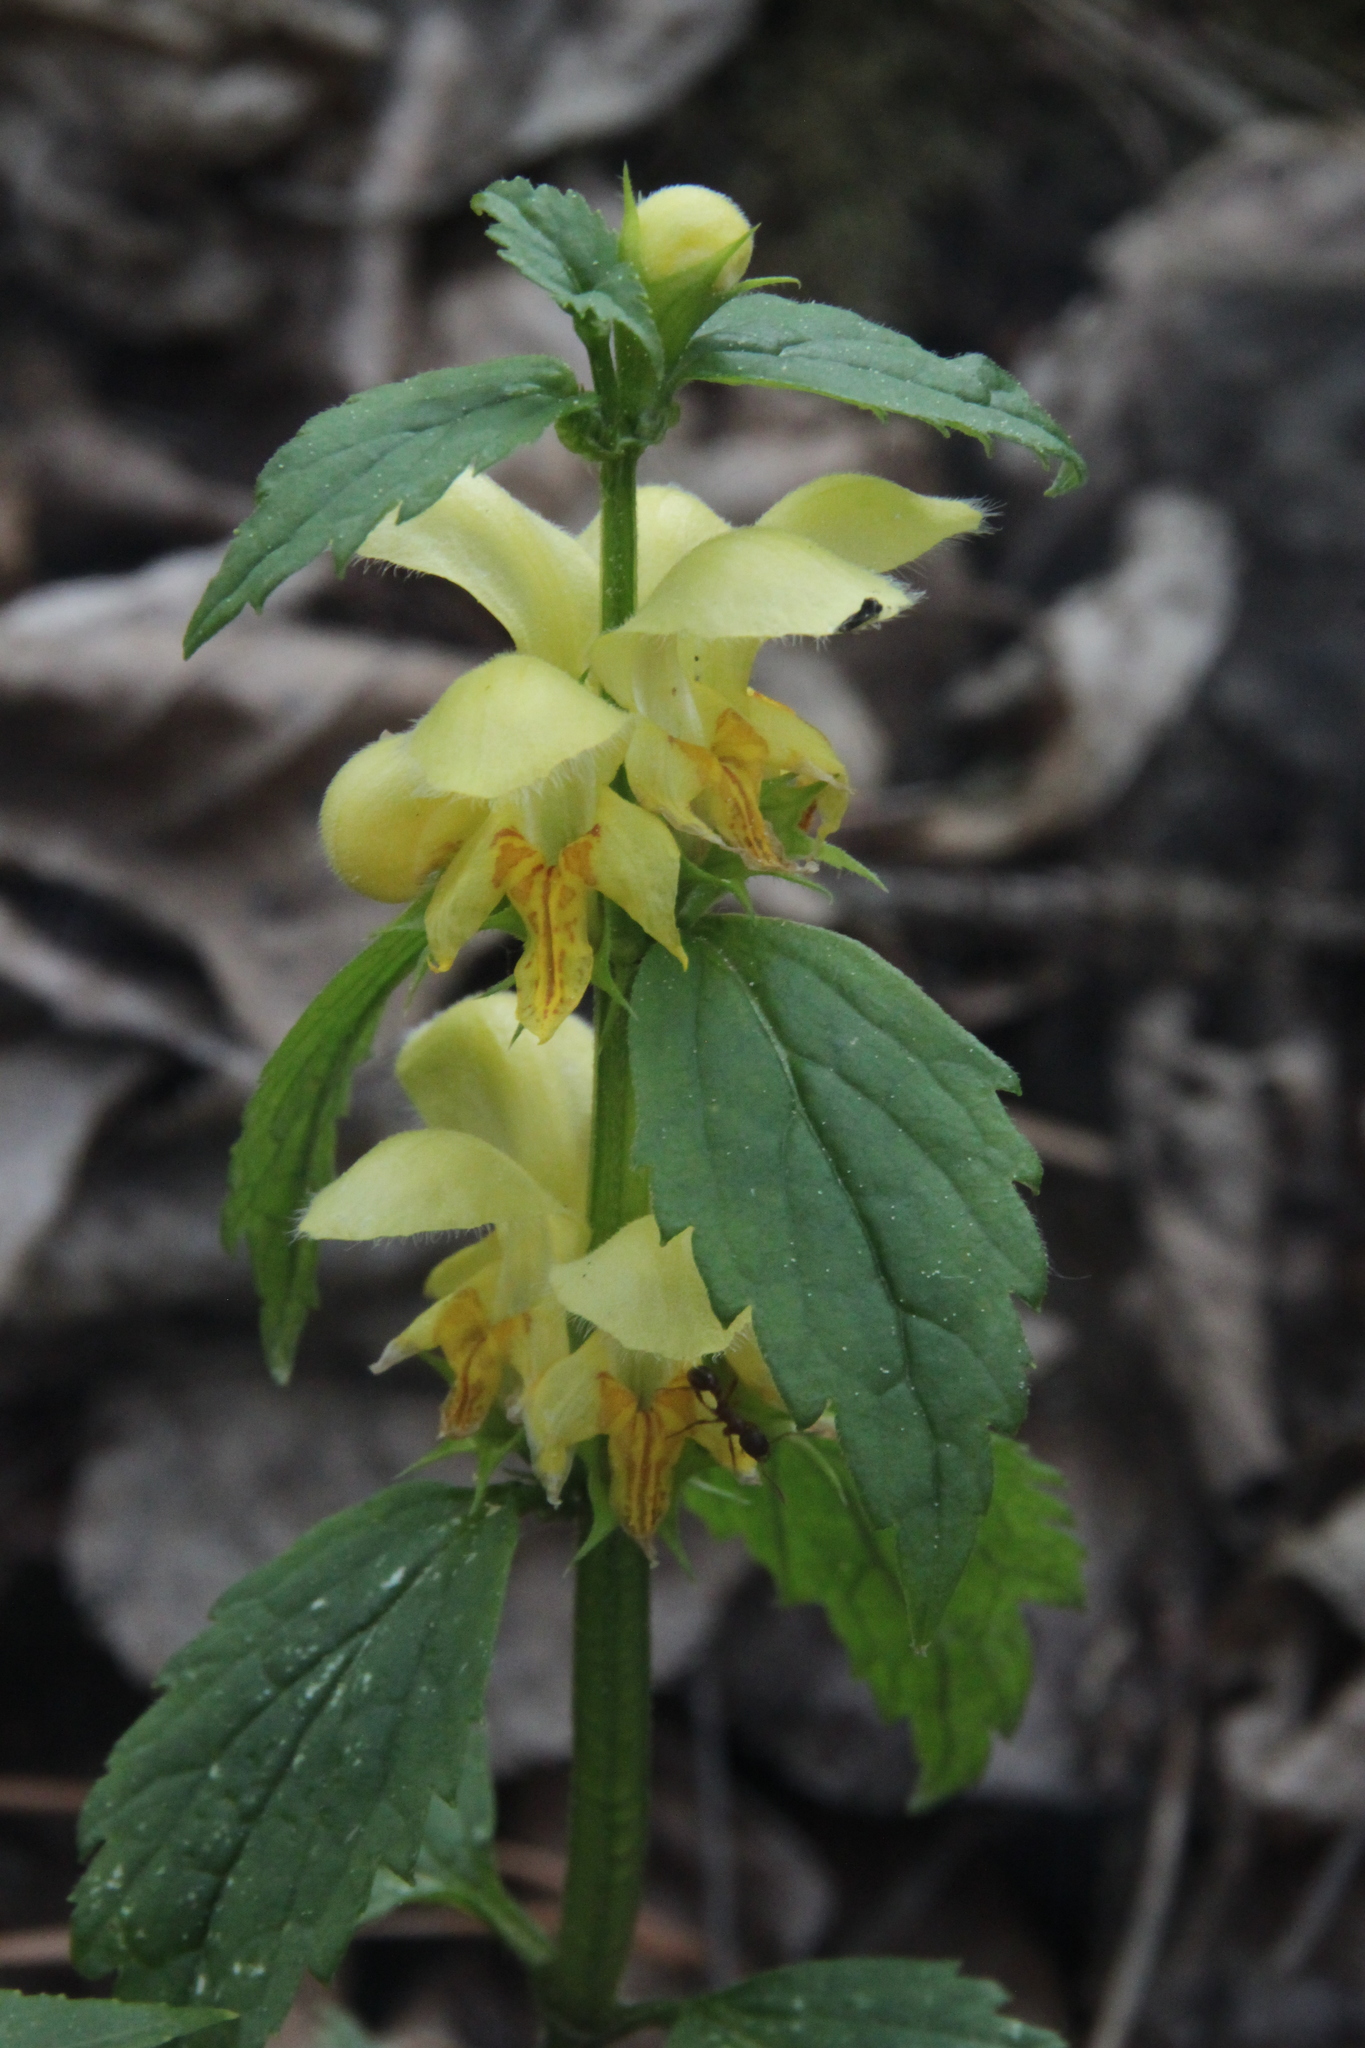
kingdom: Plantae
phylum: Tracheophyta
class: Magnoliopsida
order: Lamiales
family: Lamiaceae
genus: Lamium
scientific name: Lamium galeobdolon
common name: Yellow archangel
